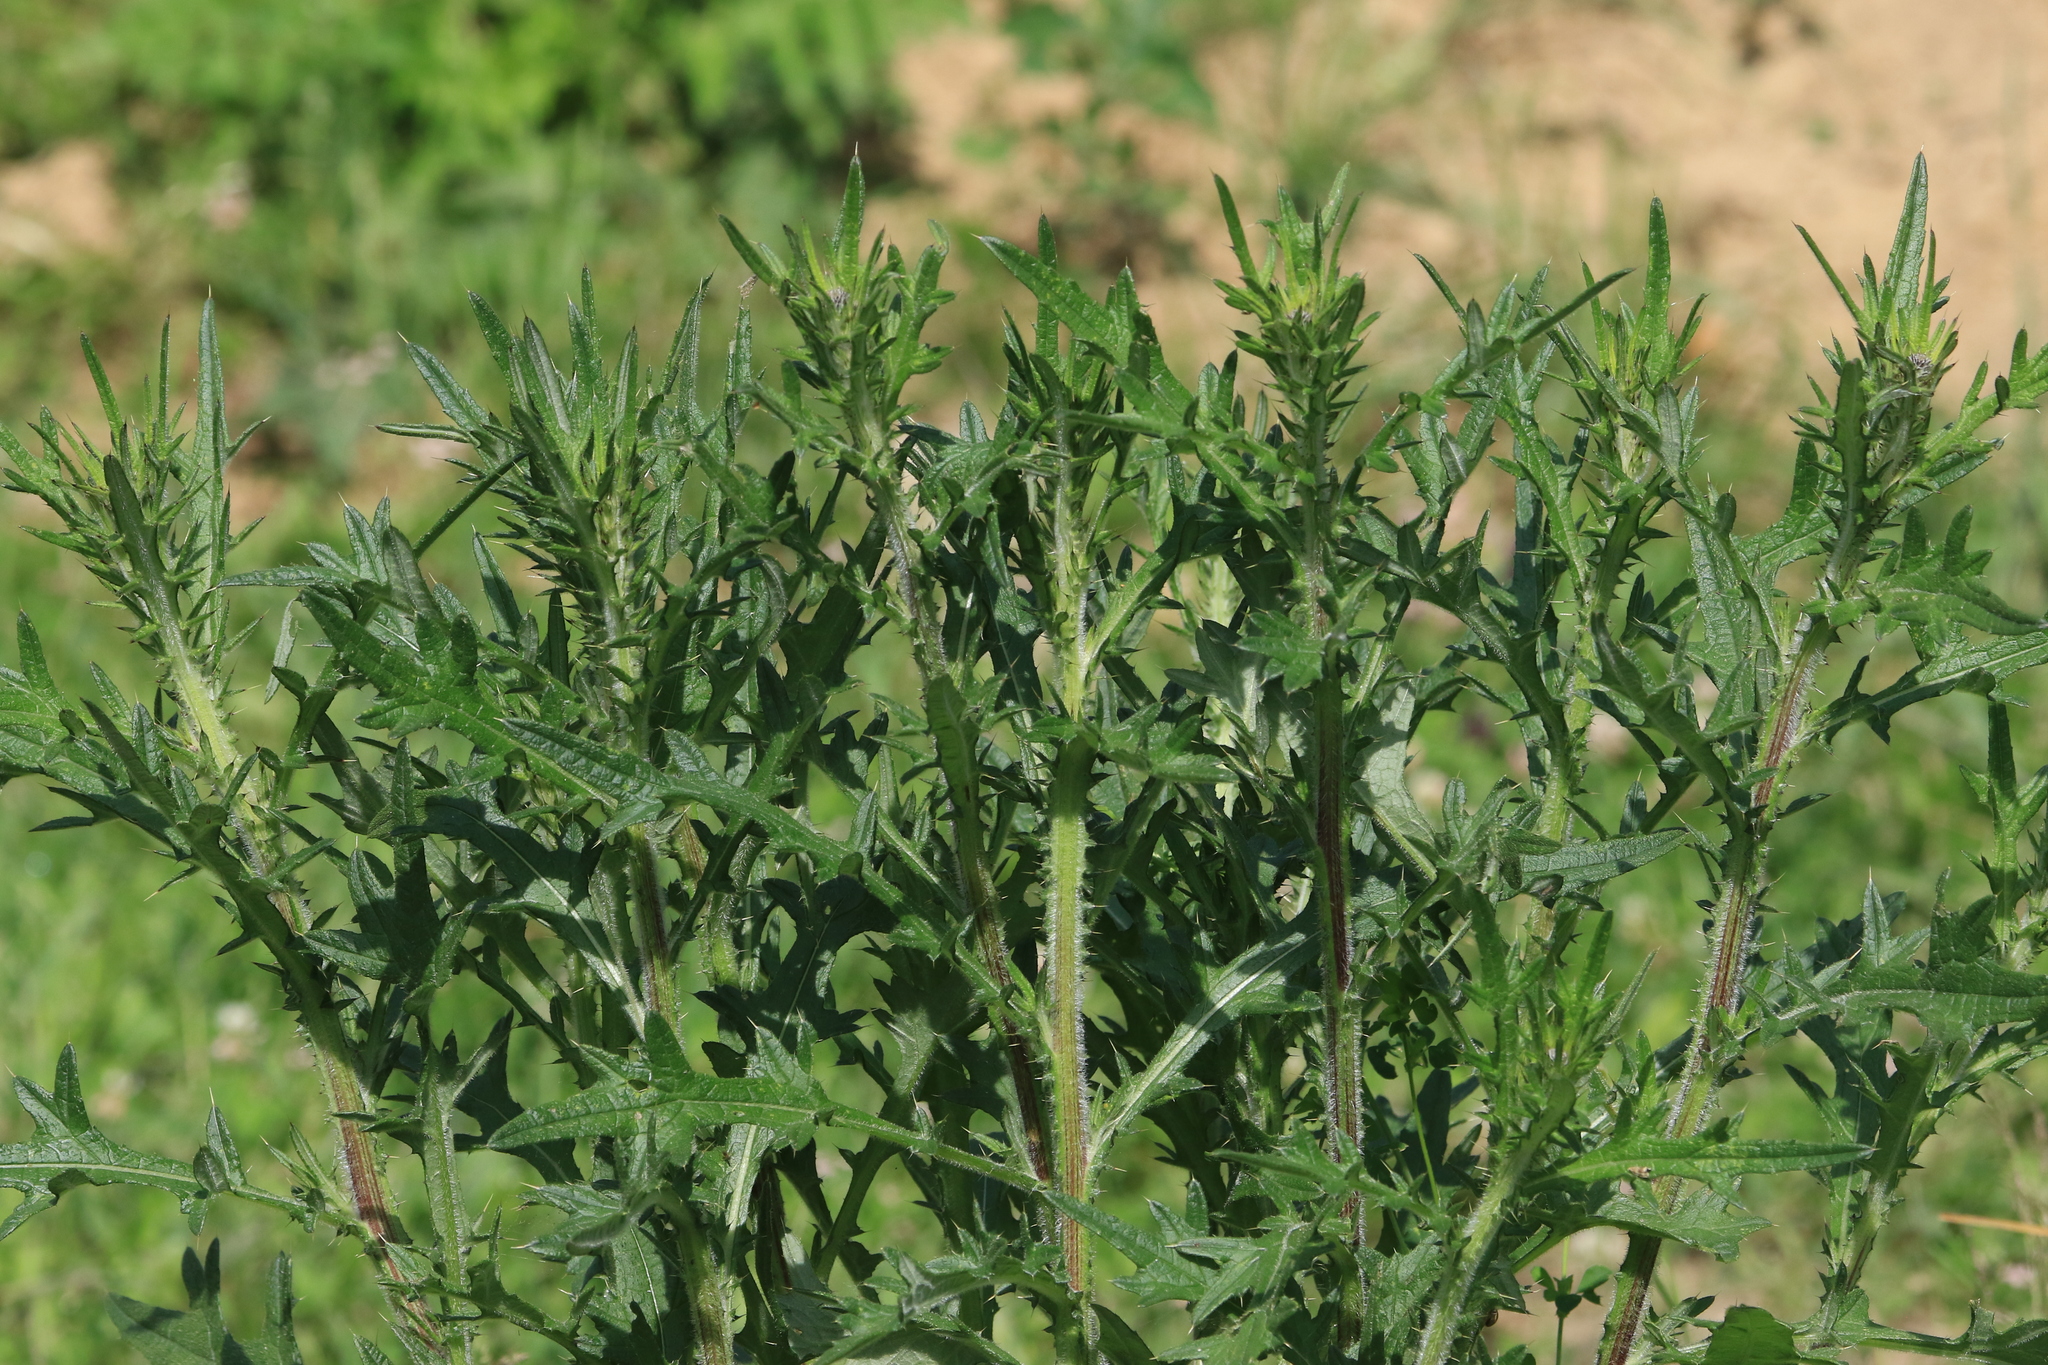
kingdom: Plantae
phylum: Tracheophyta
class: Magnoliopsida
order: Asterales
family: Asteraceae
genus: Cirsium
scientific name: Cirsium vulgare
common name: Bull thistle
